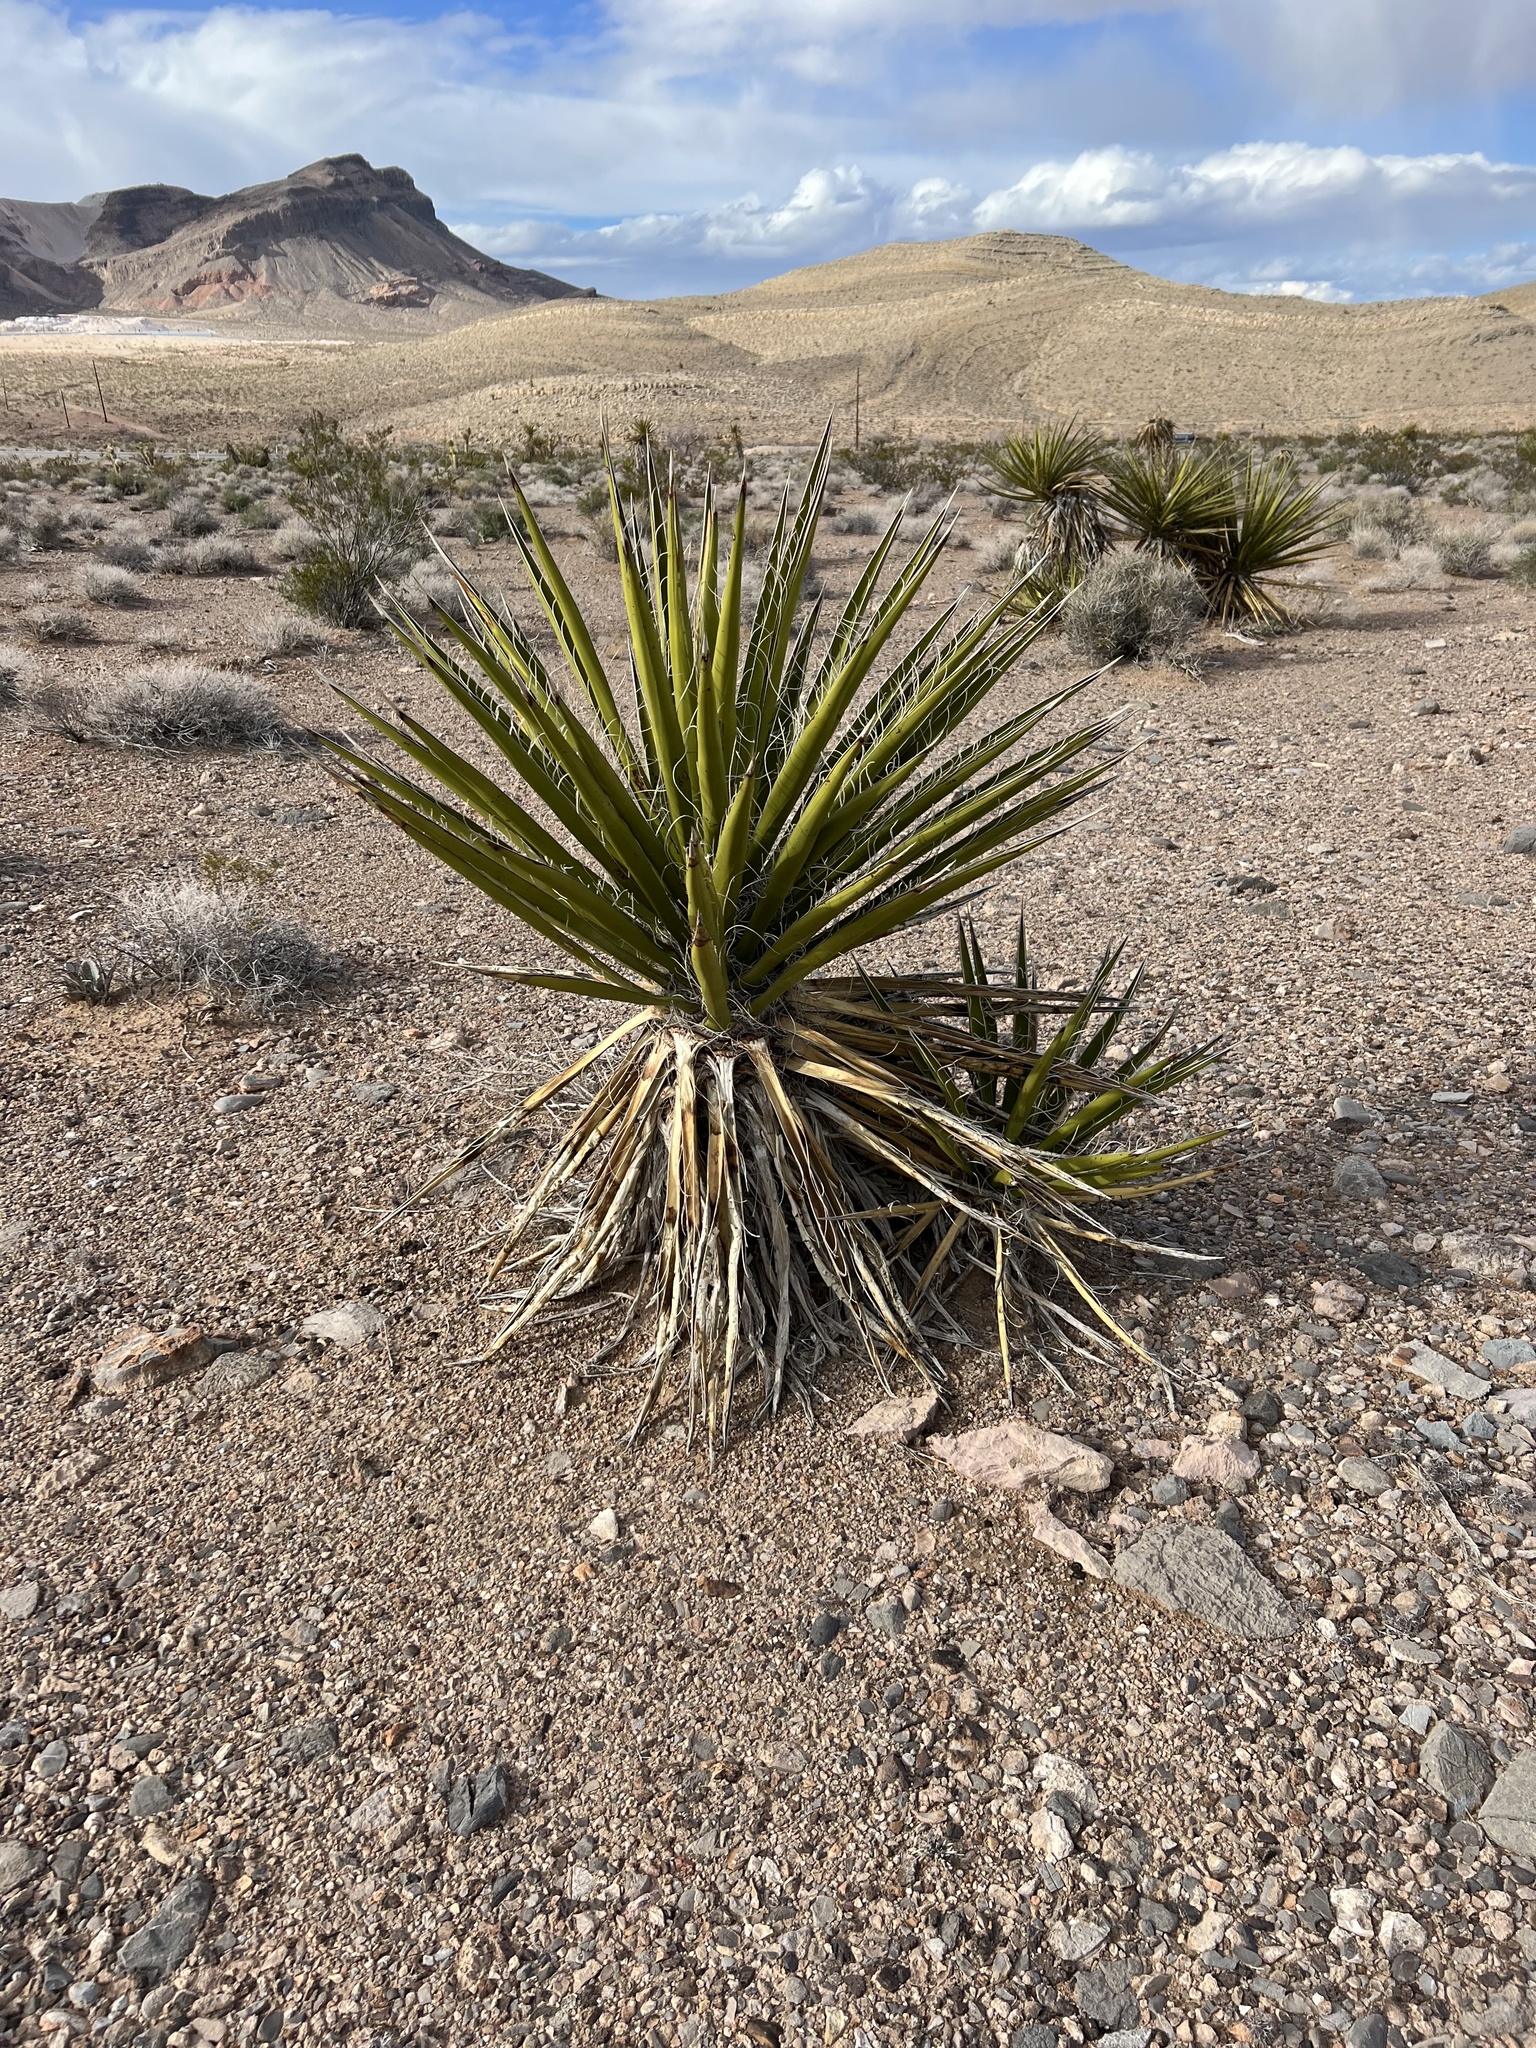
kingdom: Plantae
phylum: Tracheophyta
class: Liliopsida
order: Asparagales
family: Asparagaceae
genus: Yucca
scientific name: Yucca schidigera
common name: Mojave yucca
